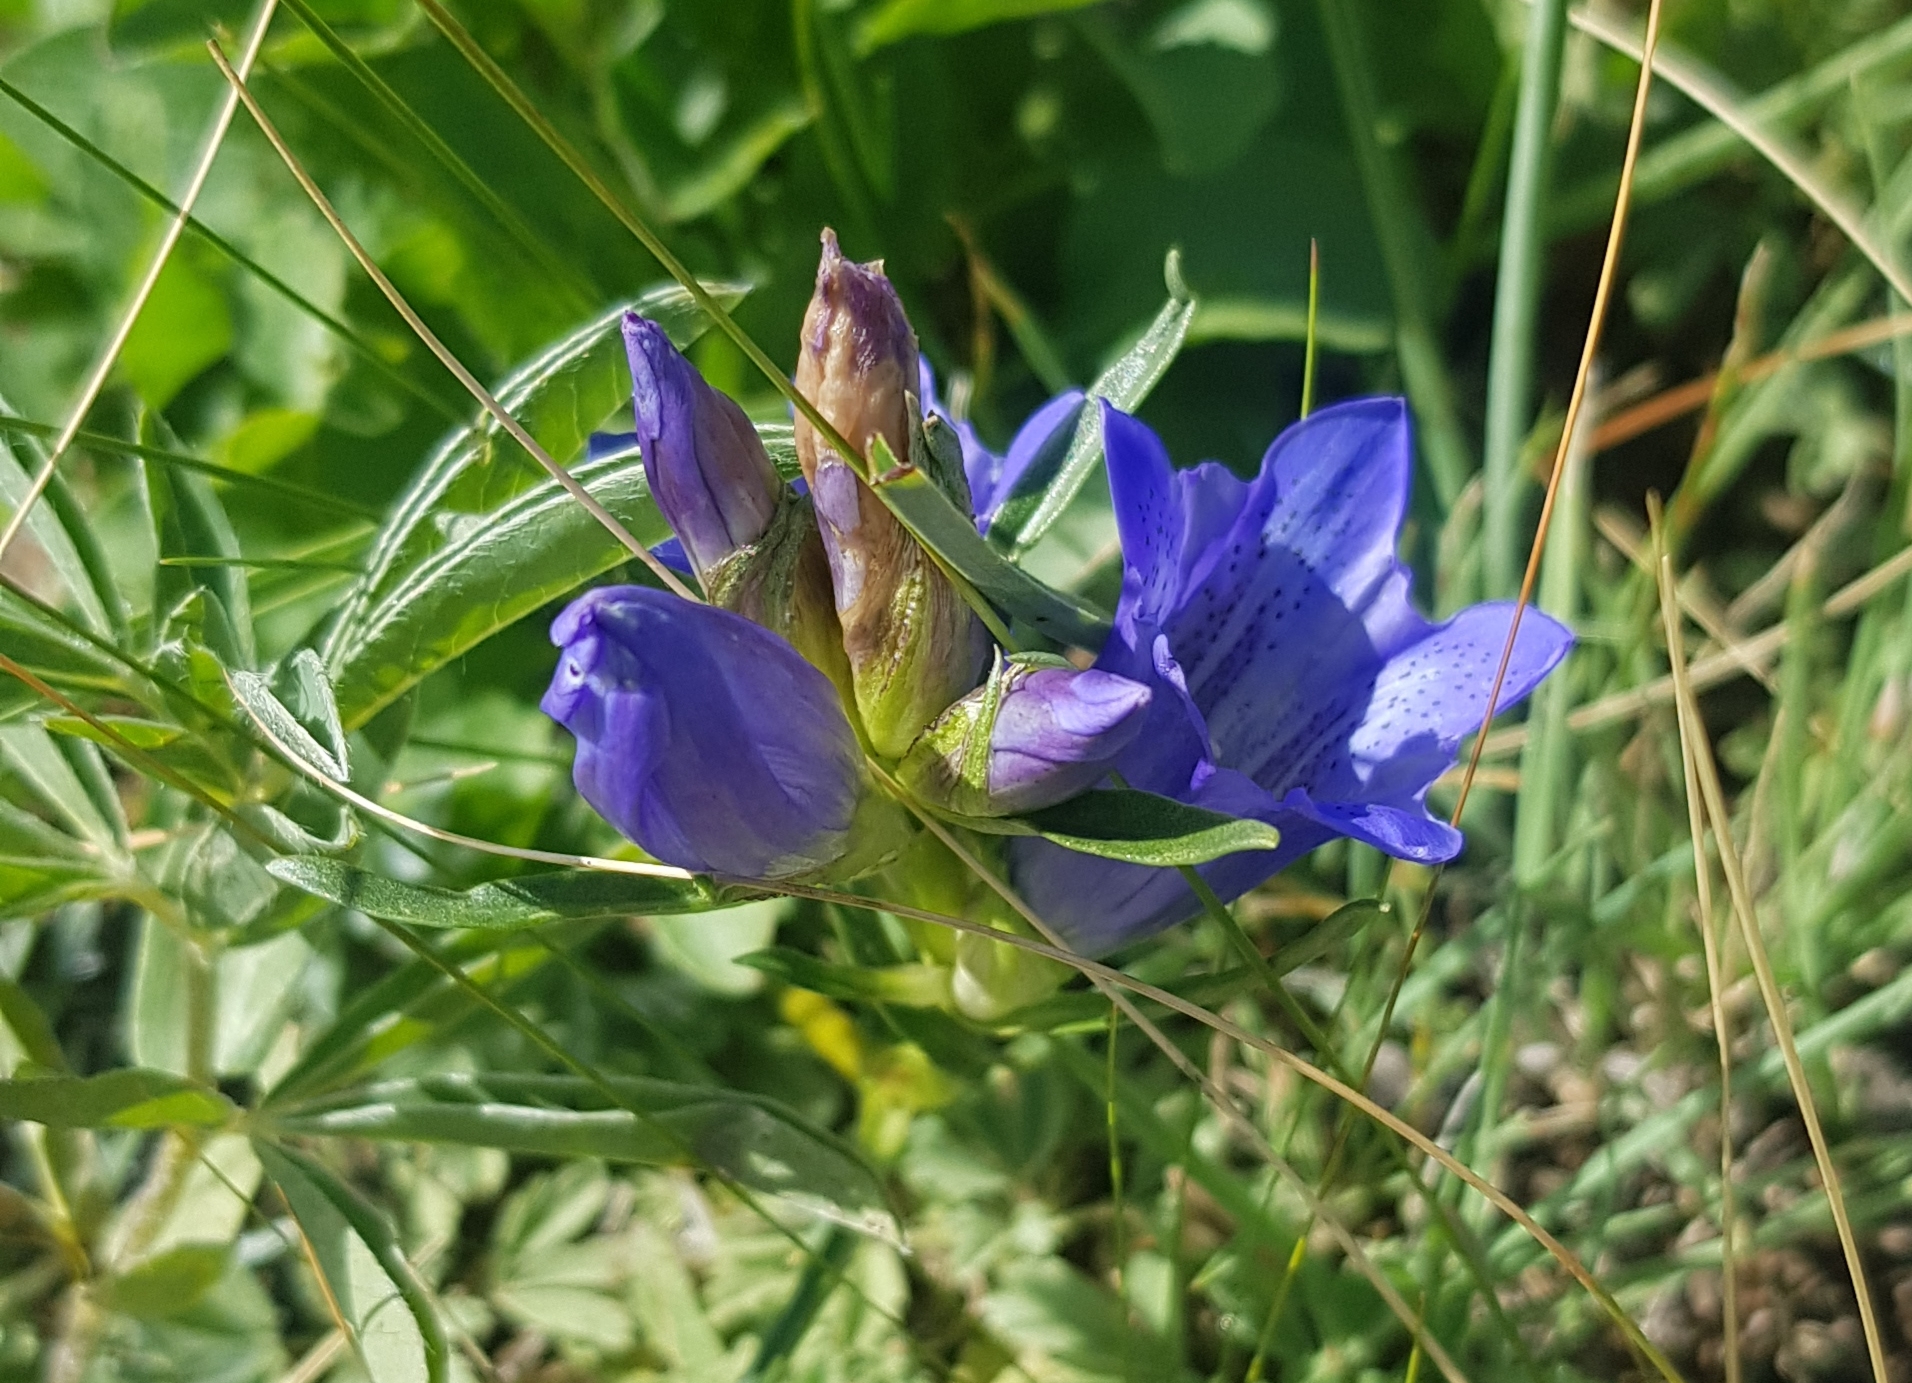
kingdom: Plantae
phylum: Tracheophyta
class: Magnoliopsida
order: Gentianales
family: Gentianaceae
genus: Gentiana
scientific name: Gentiana decumbens
